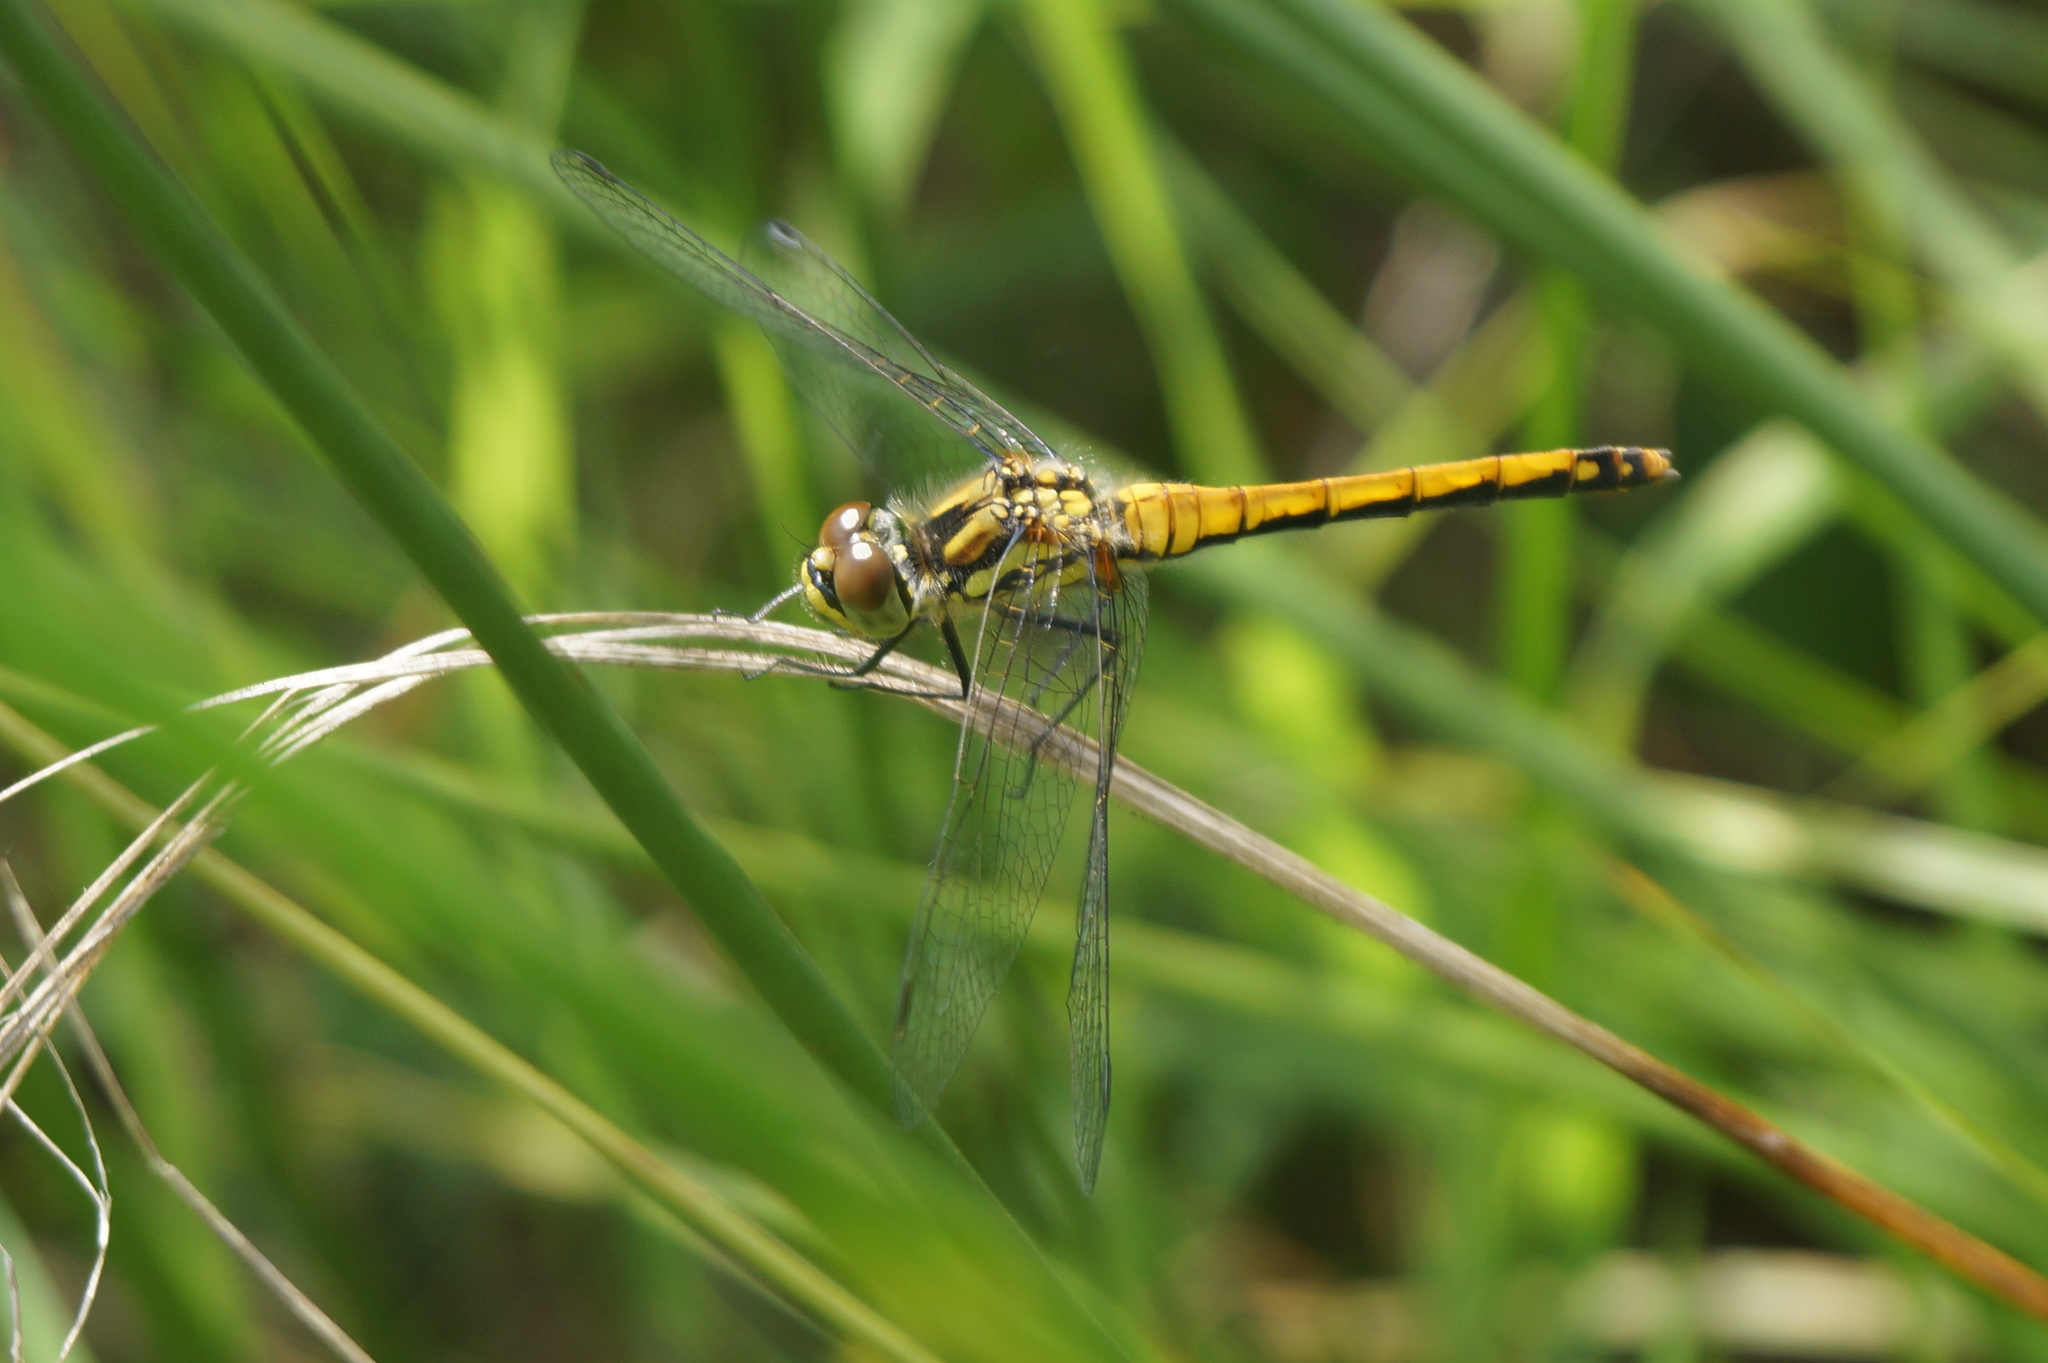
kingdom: Animalia
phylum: Arthropoda
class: Insecta
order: Odonata
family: Libellulidae
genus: Sympetrum
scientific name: Sympetrum danae
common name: Black darter
